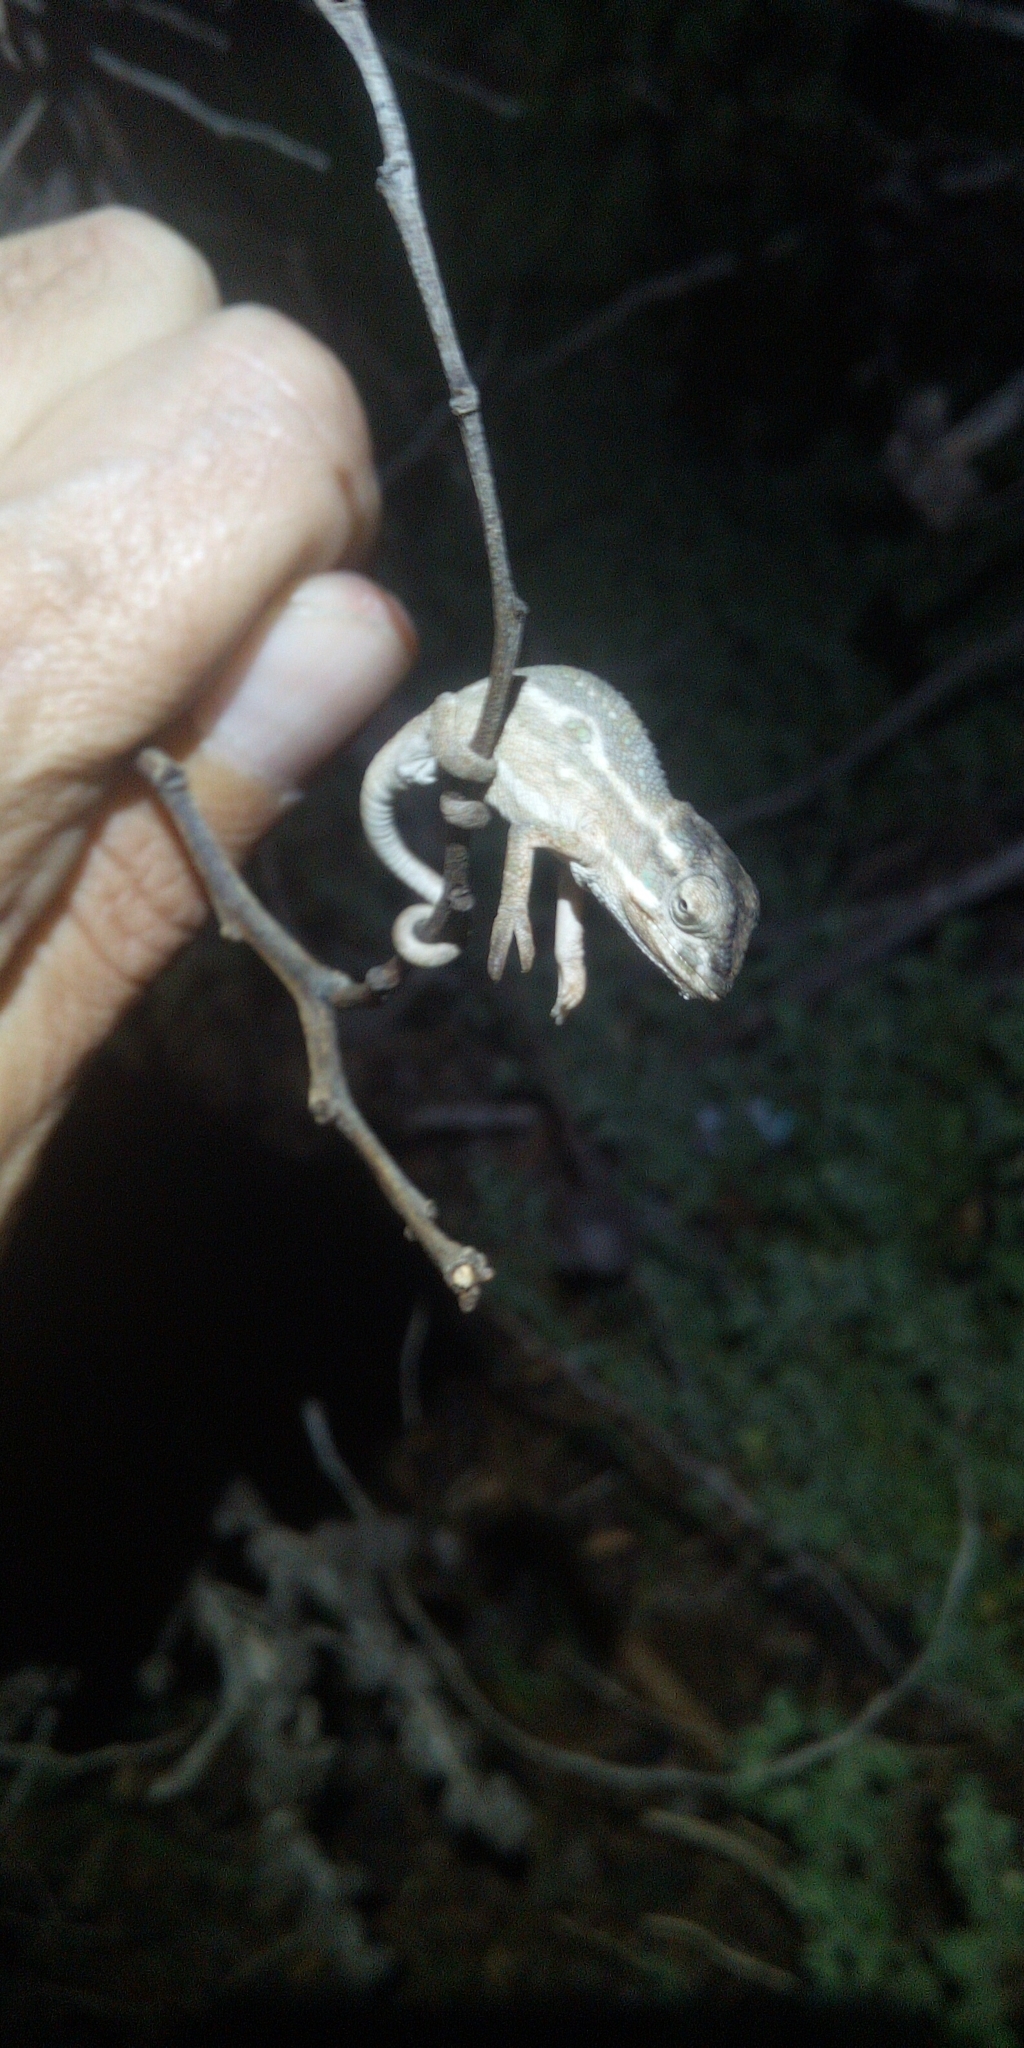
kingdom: Animalia
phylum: Chordata
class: Squamata
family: Chamaeleonidae
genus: Bradypodion
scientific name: Bradypodion pumilum
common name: Cape dwarf chameleon
